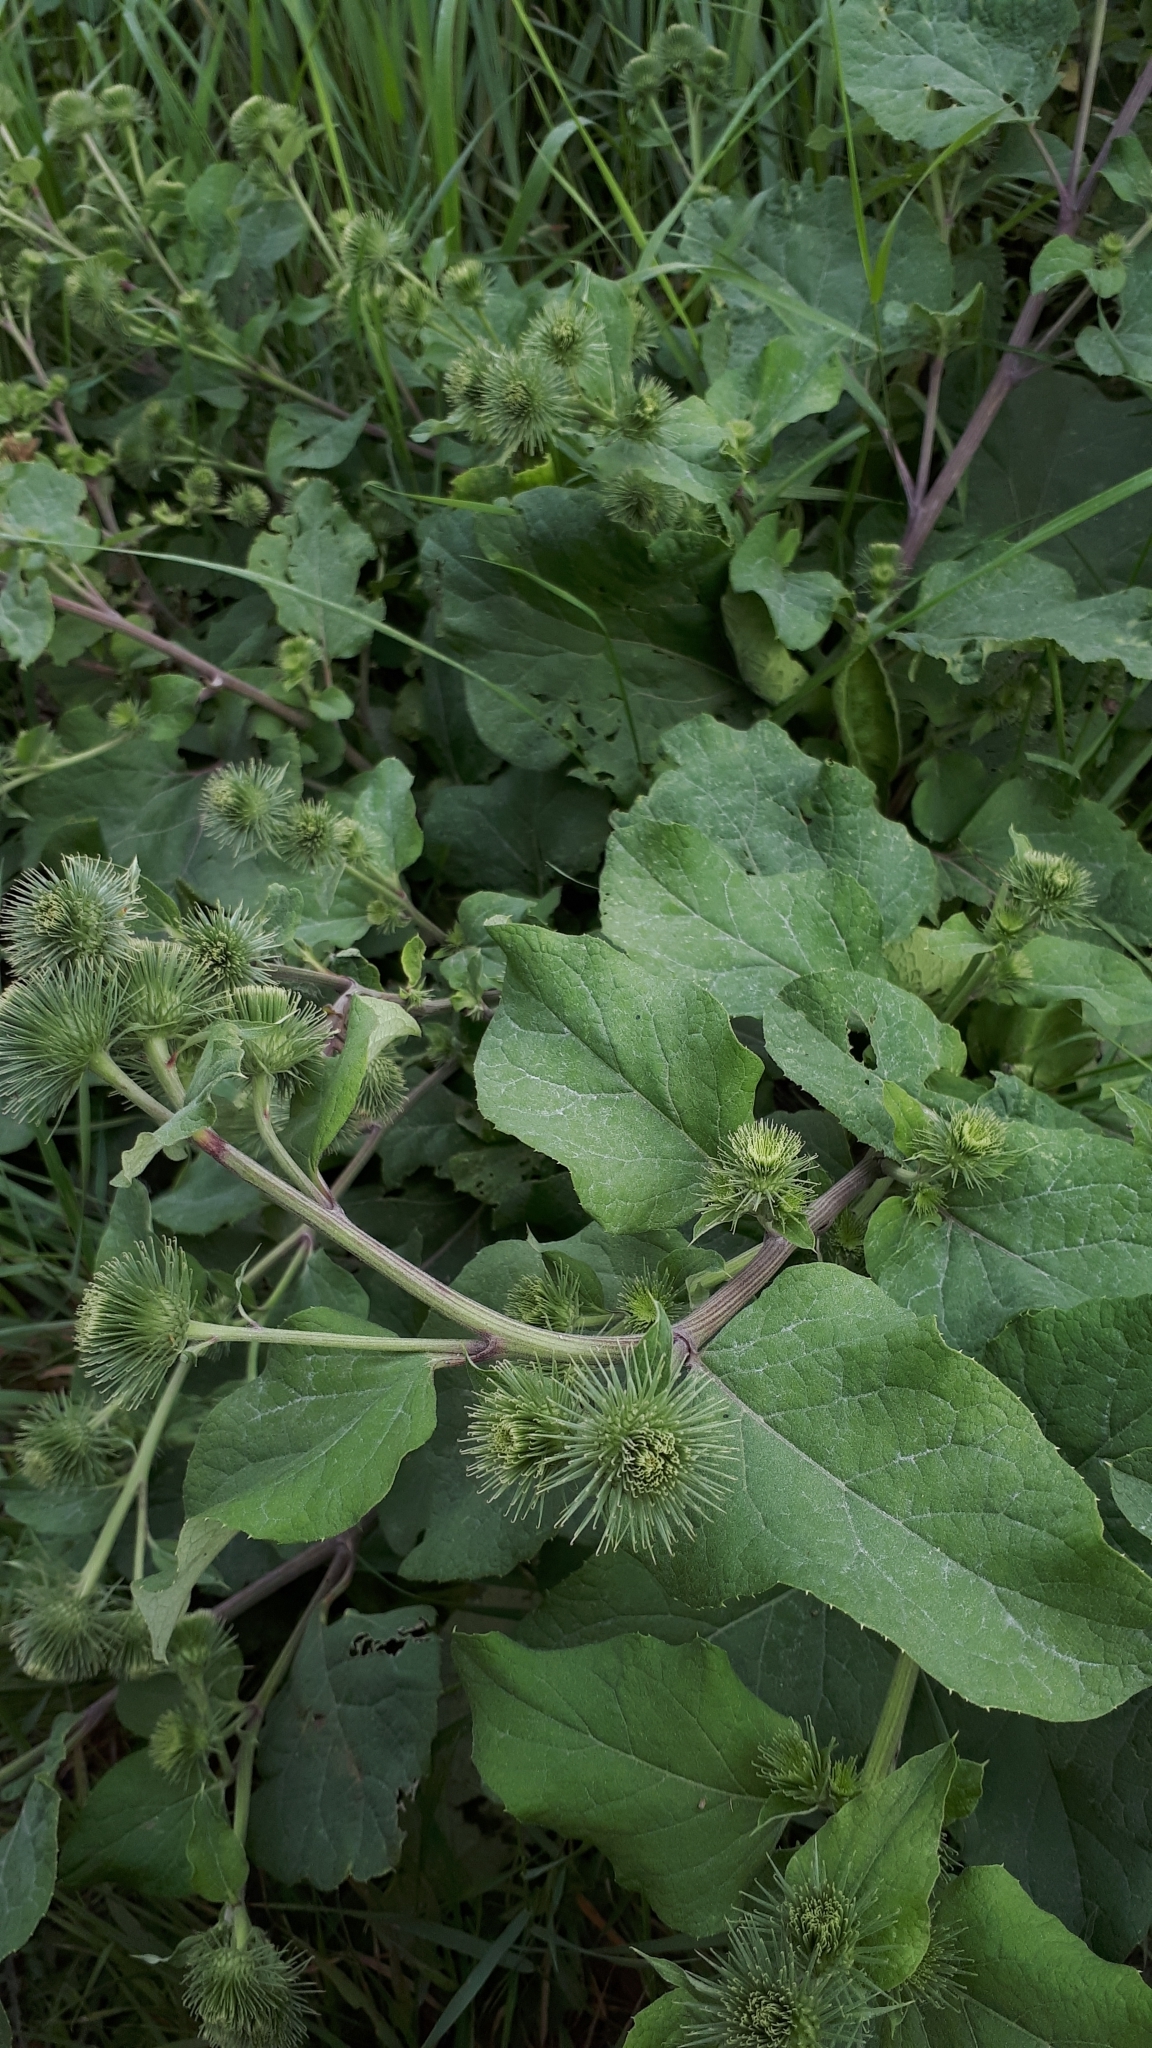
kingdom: Plantae
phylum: Tracheophyta
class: Magnoliopsida
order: Asterales
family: Asteraceae
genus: Arctium
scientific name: Arctium lappa
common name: Greater burdock
